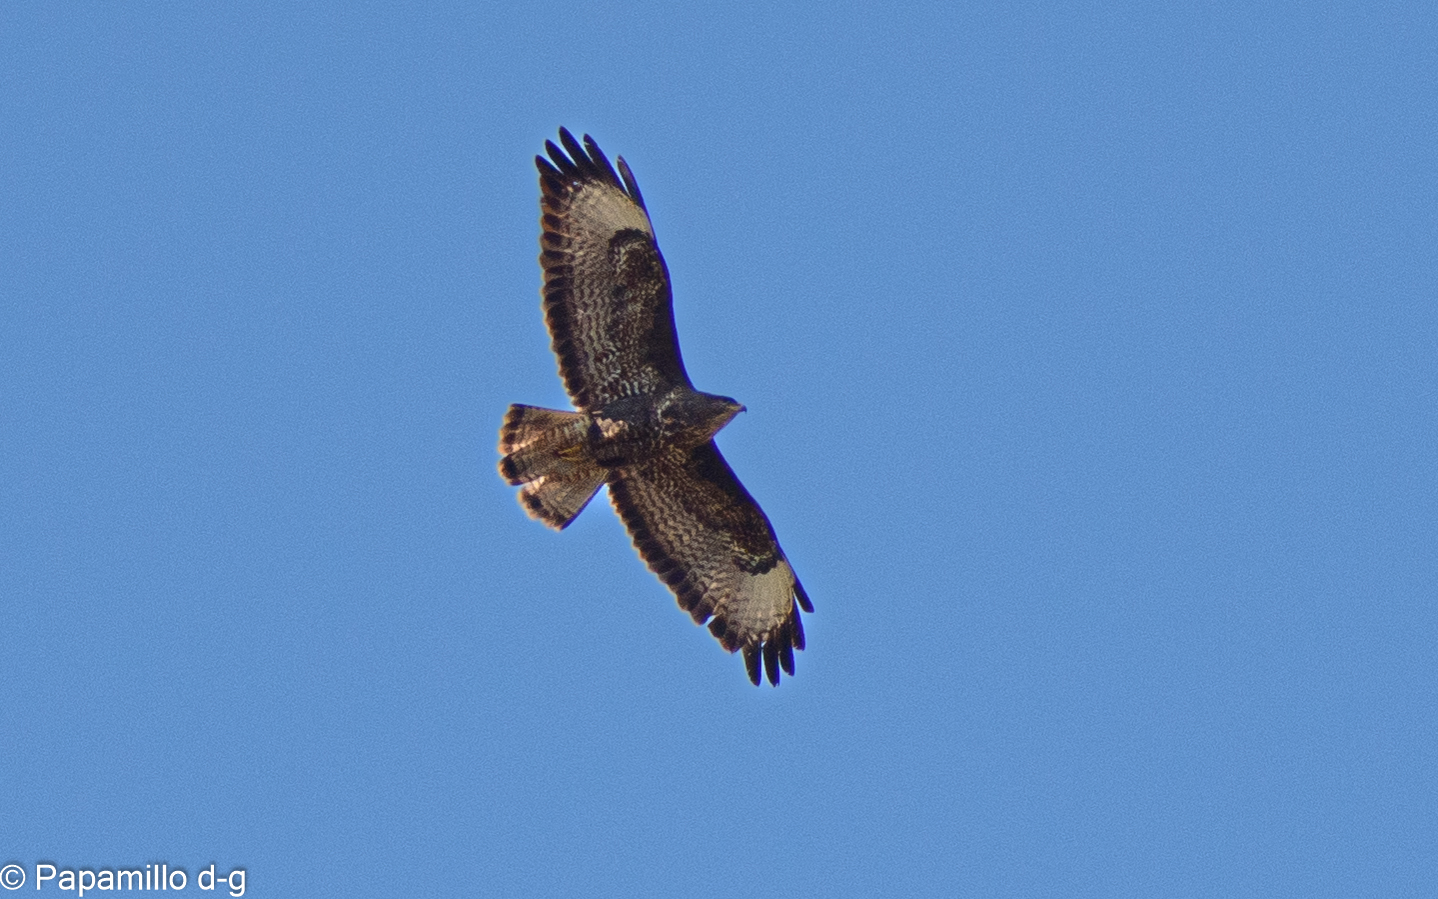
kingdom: Animalia
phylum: Chordata
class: Aves
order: Accipitriformes
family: Accipitridae
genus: Buteo
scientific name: Buteo buteo
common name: Common buzzard
